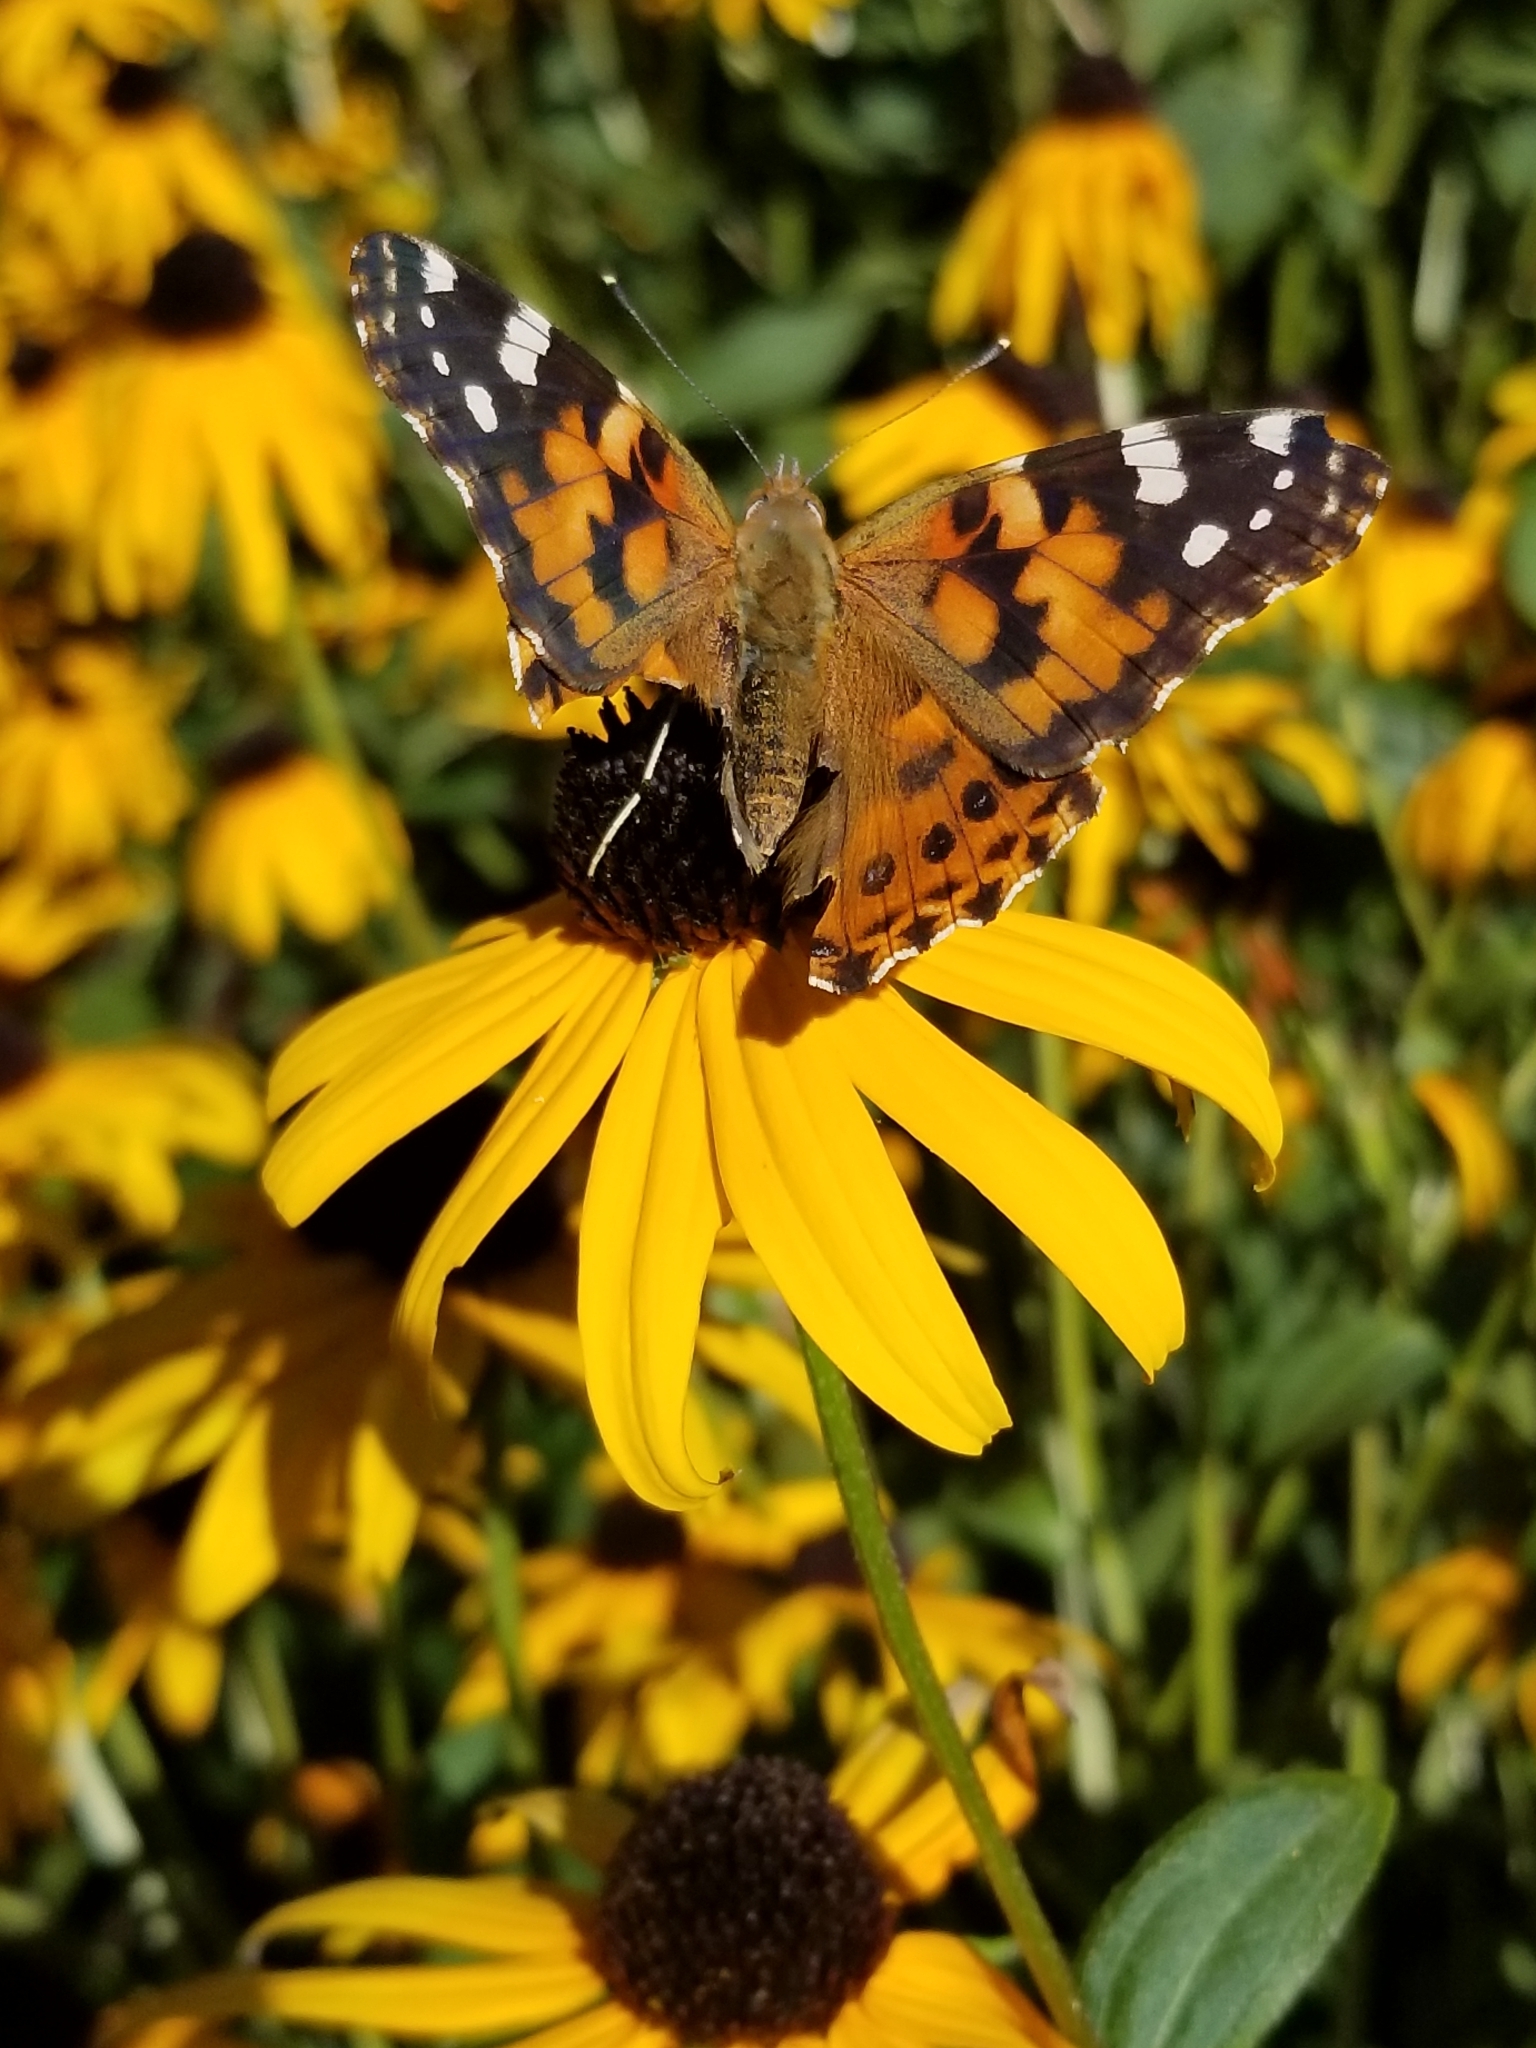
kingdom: Animalia
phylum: Arthropoda
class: Insecta
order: Lepidoptera
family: Nymphalidae
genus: Vanessa
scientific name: Vanessa cardui
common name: Painted lady
